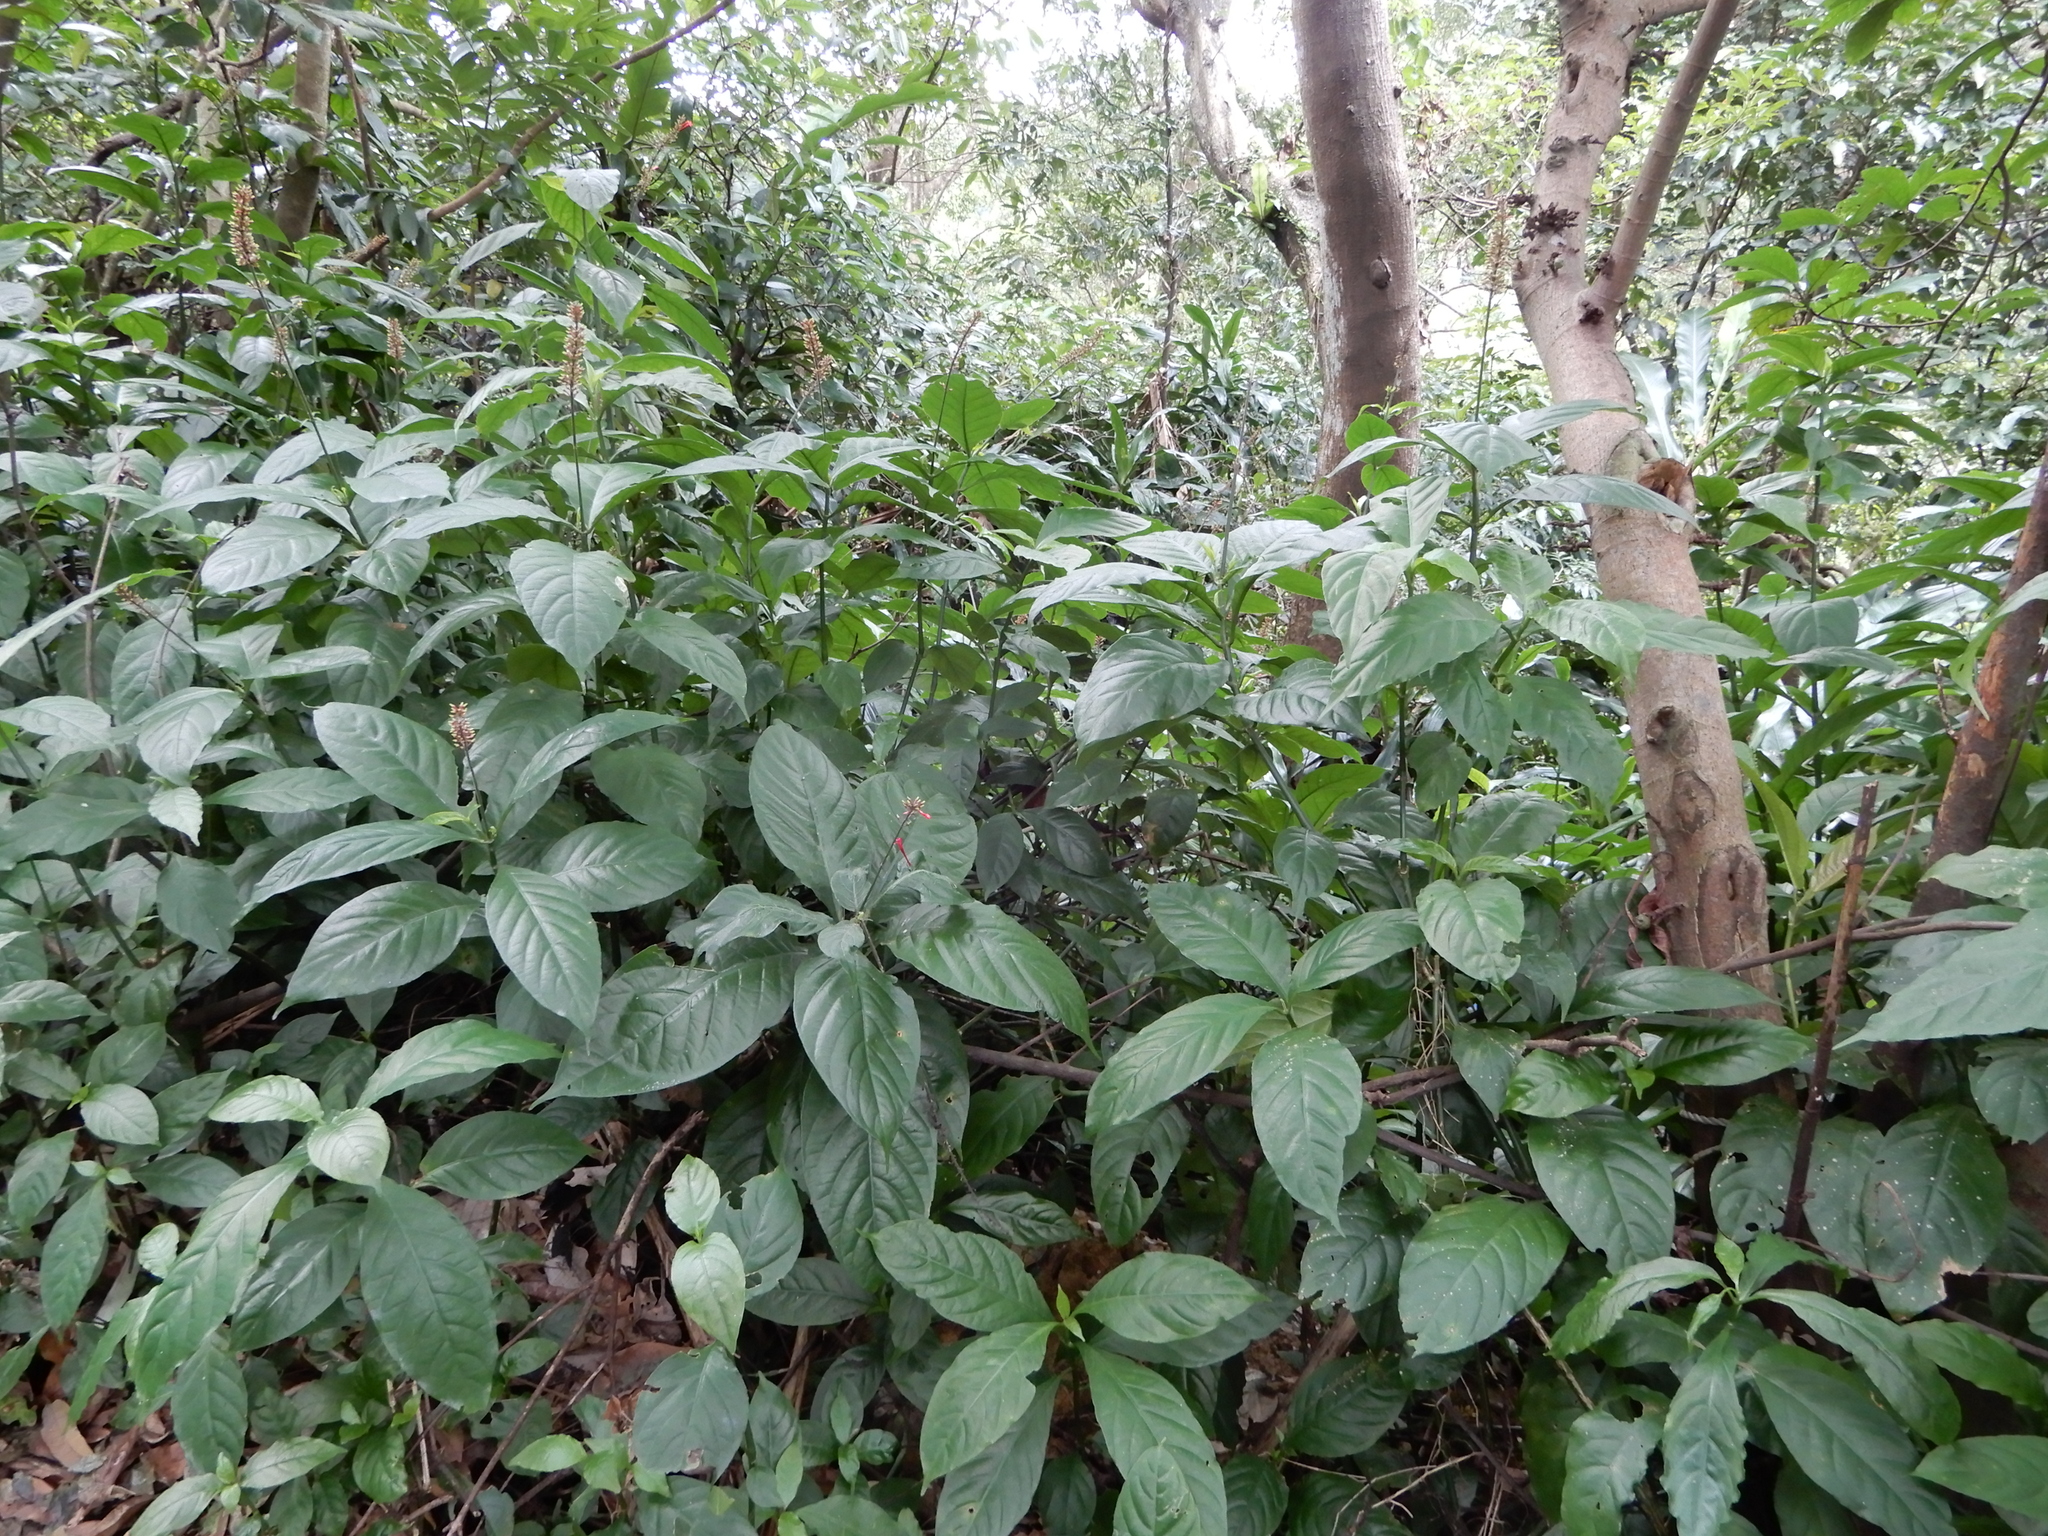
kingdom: Plantae
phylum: Tracheophyta
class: Magnoliopsida
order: Lamiales
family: Acanthaceae
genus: Odontonema
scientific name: Odontonema tubaeforme
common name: Firespike
